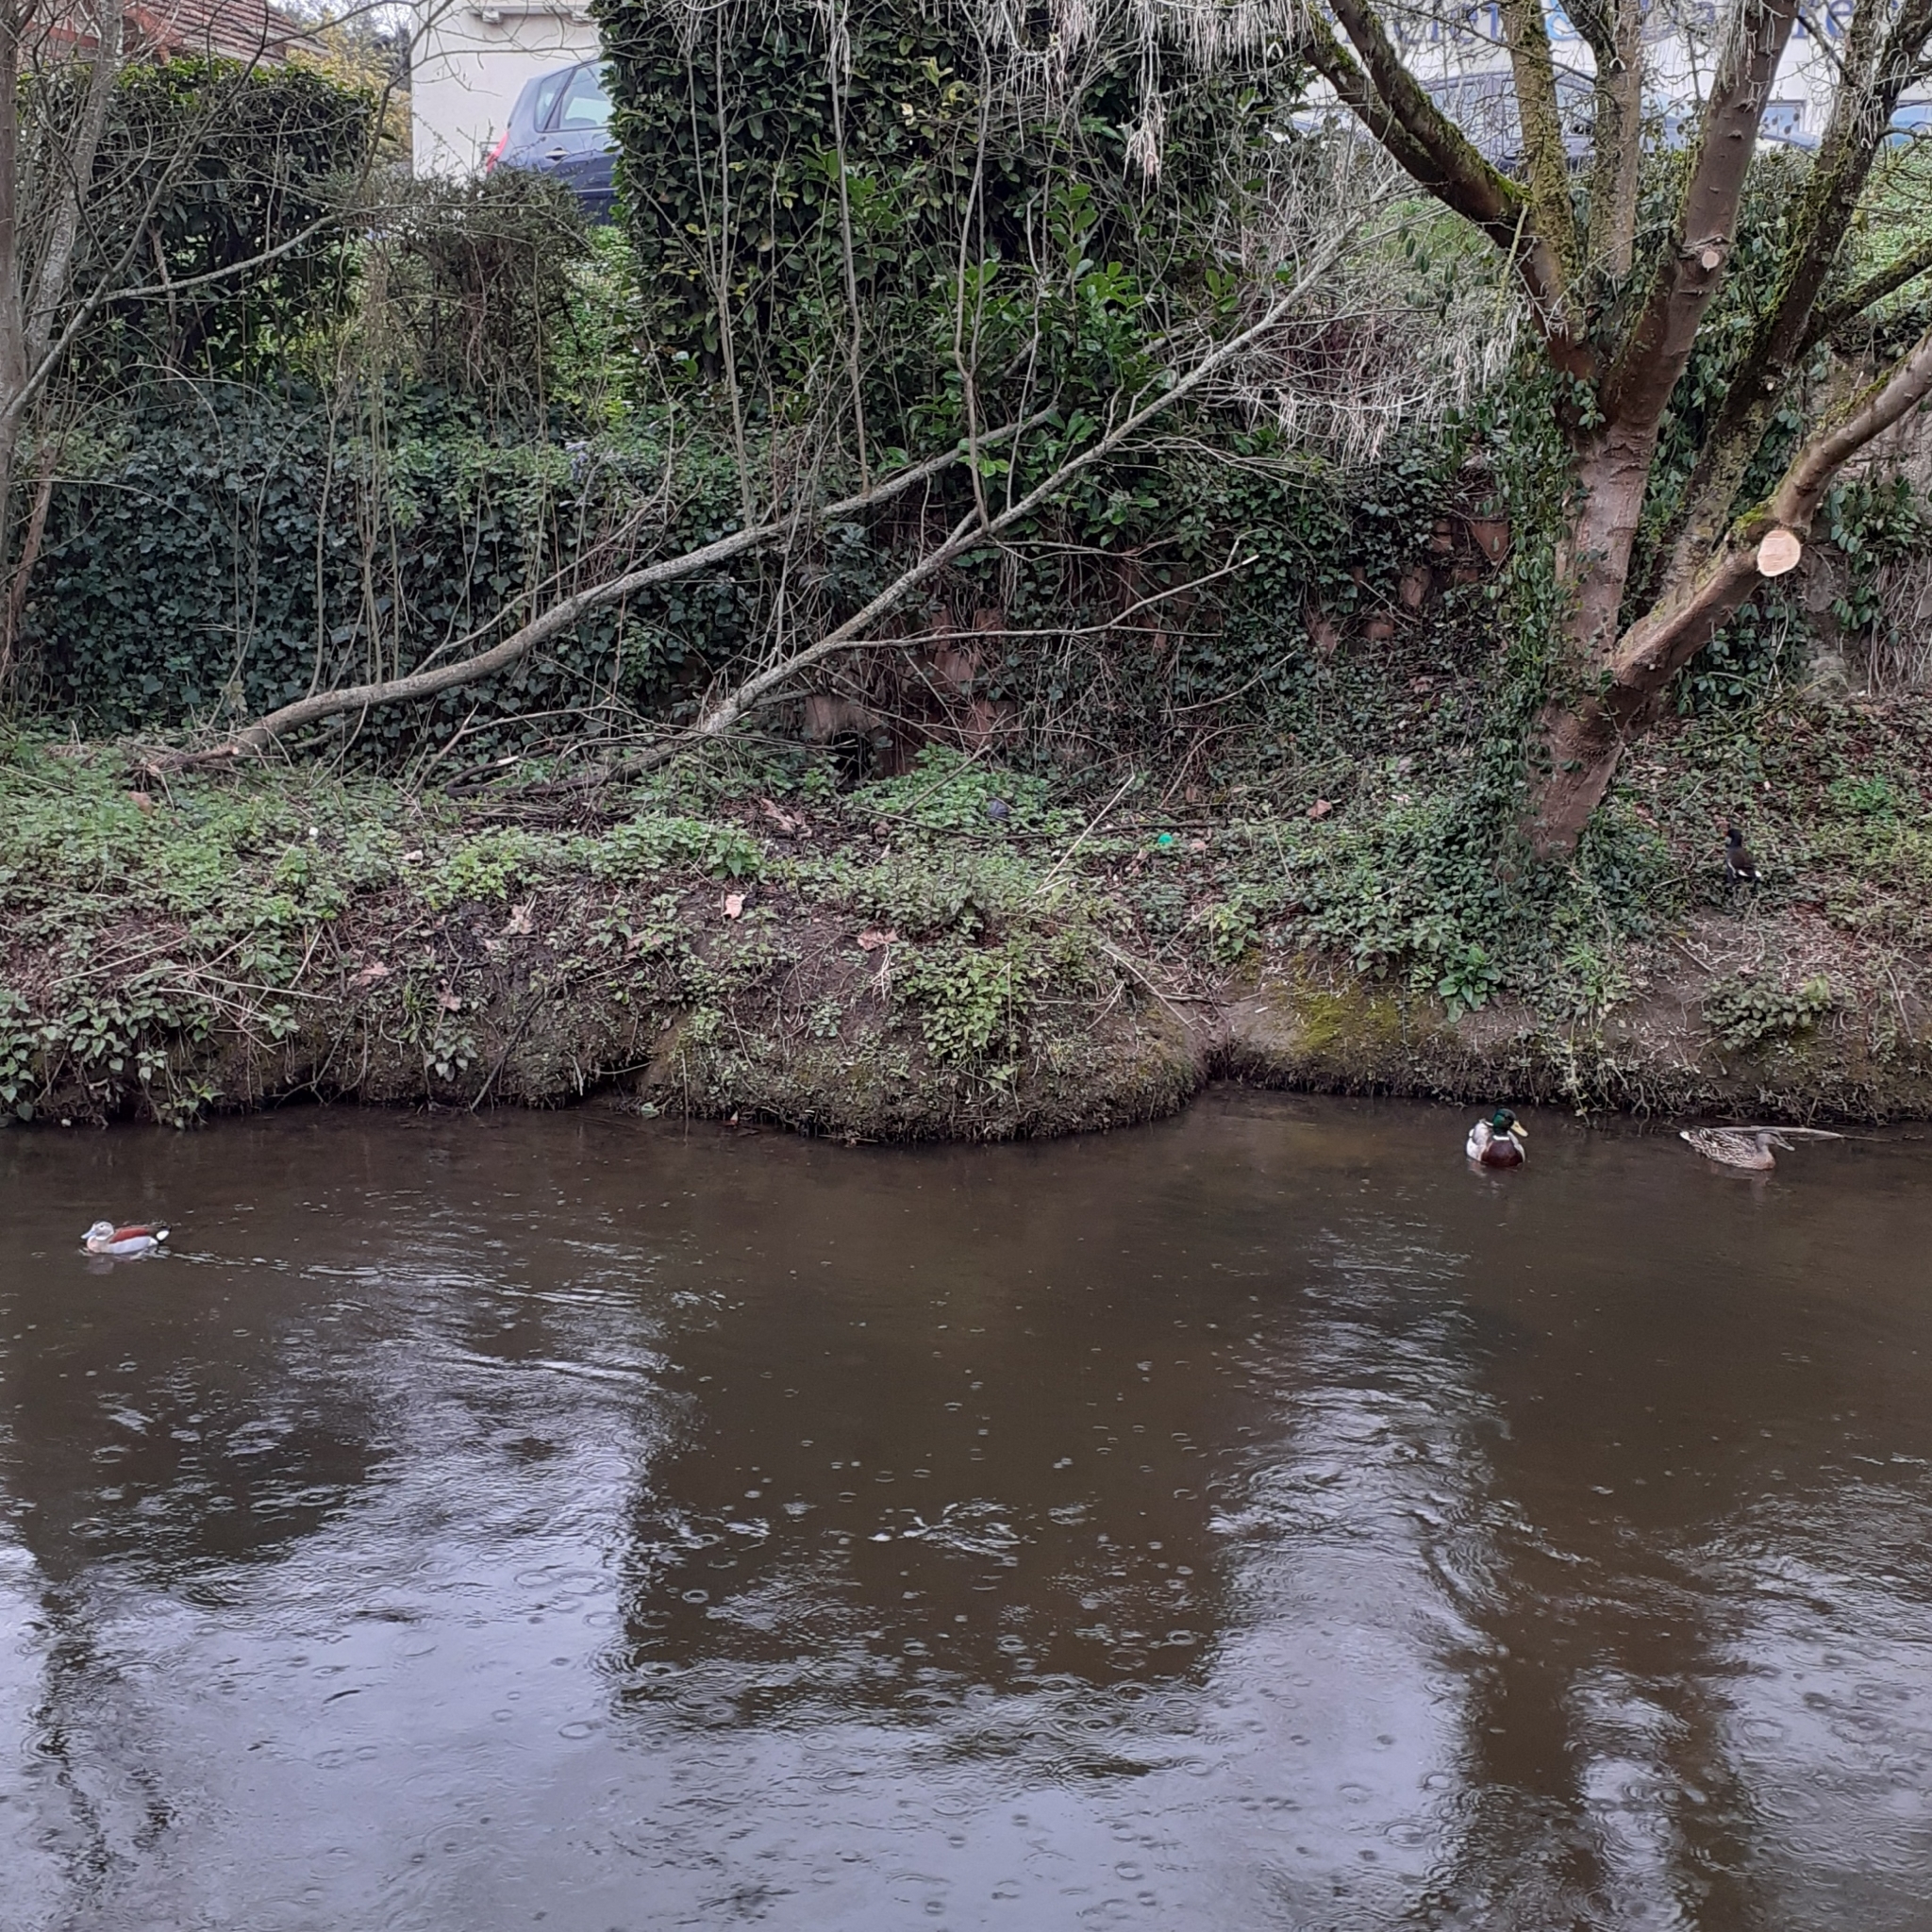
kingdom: Animalia
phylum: Chordata
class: Aves
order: Anseriformes
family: Anatidae
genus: Callonetta
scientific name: Callonetta leucophrys
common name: Ringed teal
